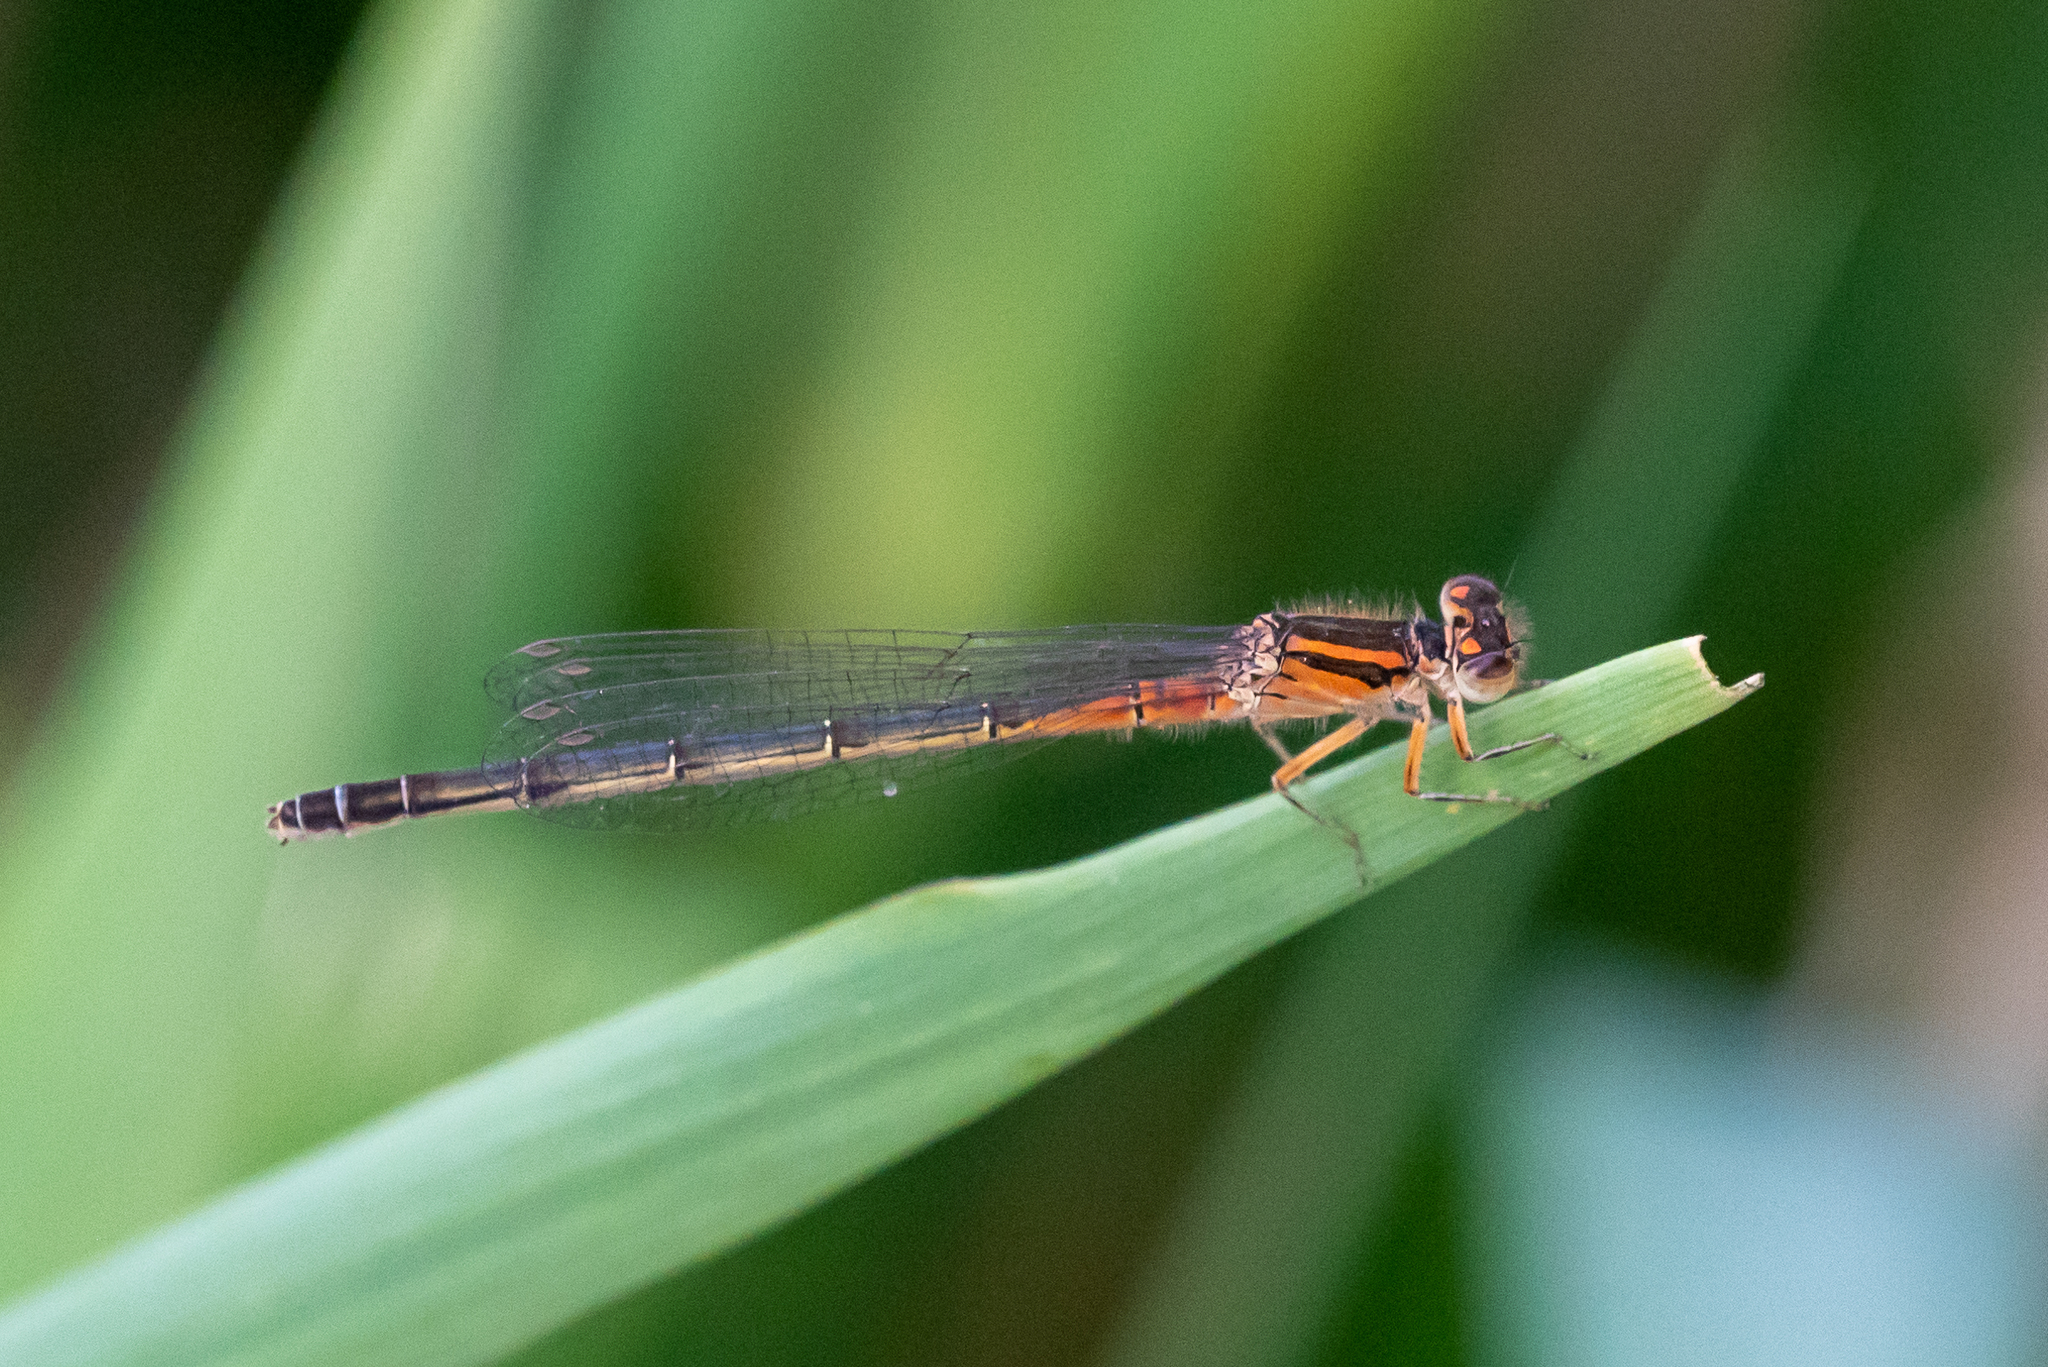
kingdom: Animalia
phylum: Arthropoda
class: Insecta
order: Odonata
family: Coenagrionidae
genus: Ischnura
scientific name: Ischnura verticalis
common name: Eastern forktail
